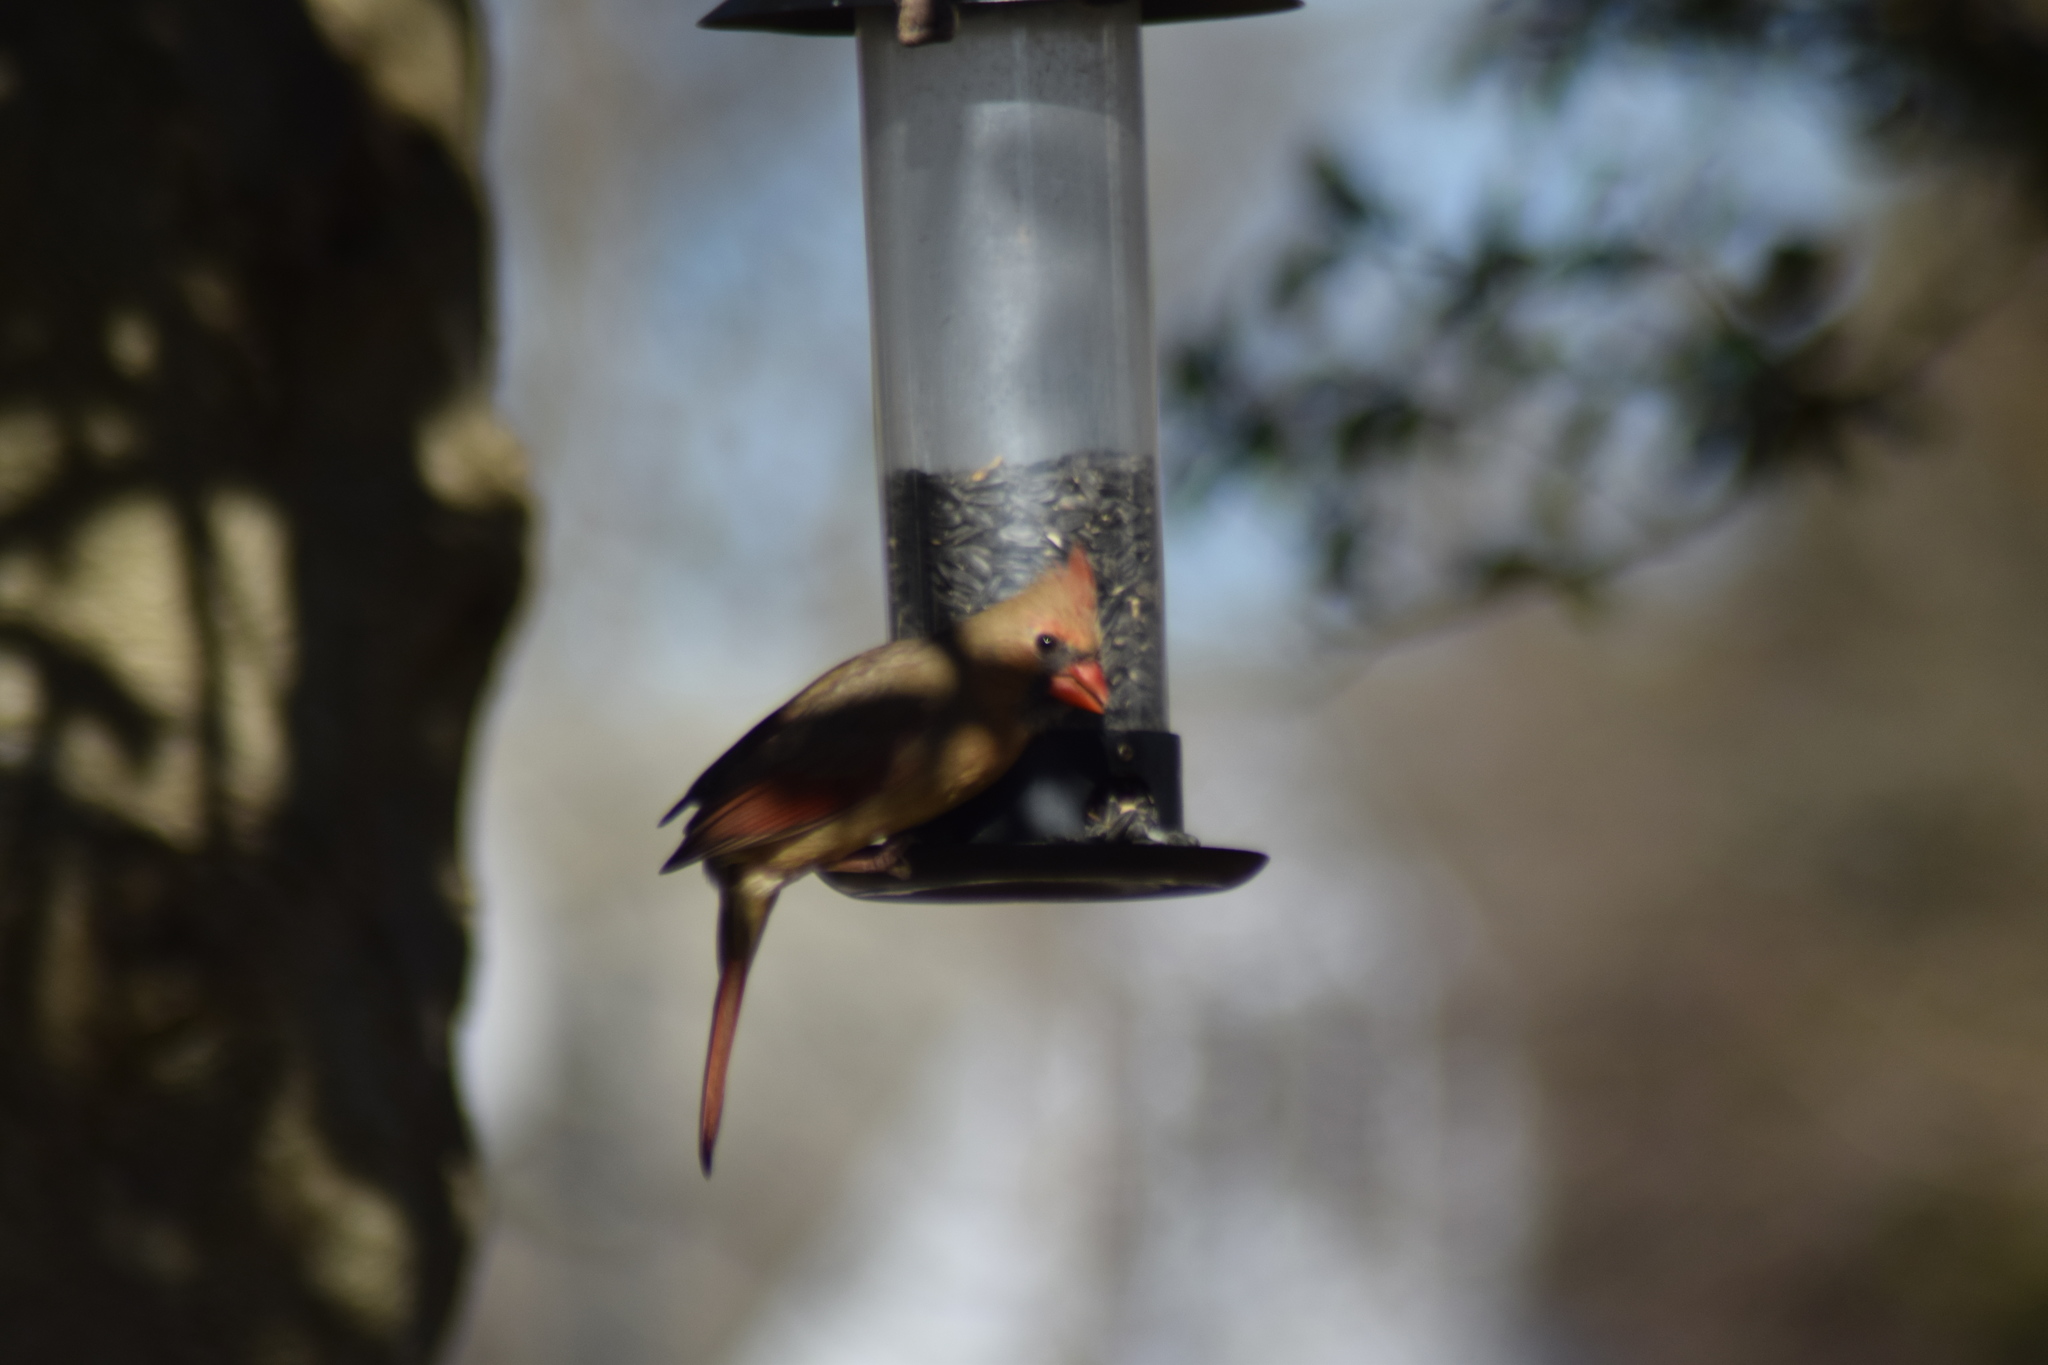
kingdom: Animalia
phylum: Chordata
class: Aves
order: Passeriformes
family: Cardinalidae
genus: Cardinalis
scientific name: Cardinalis cardinalis
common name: Northern cardinal
